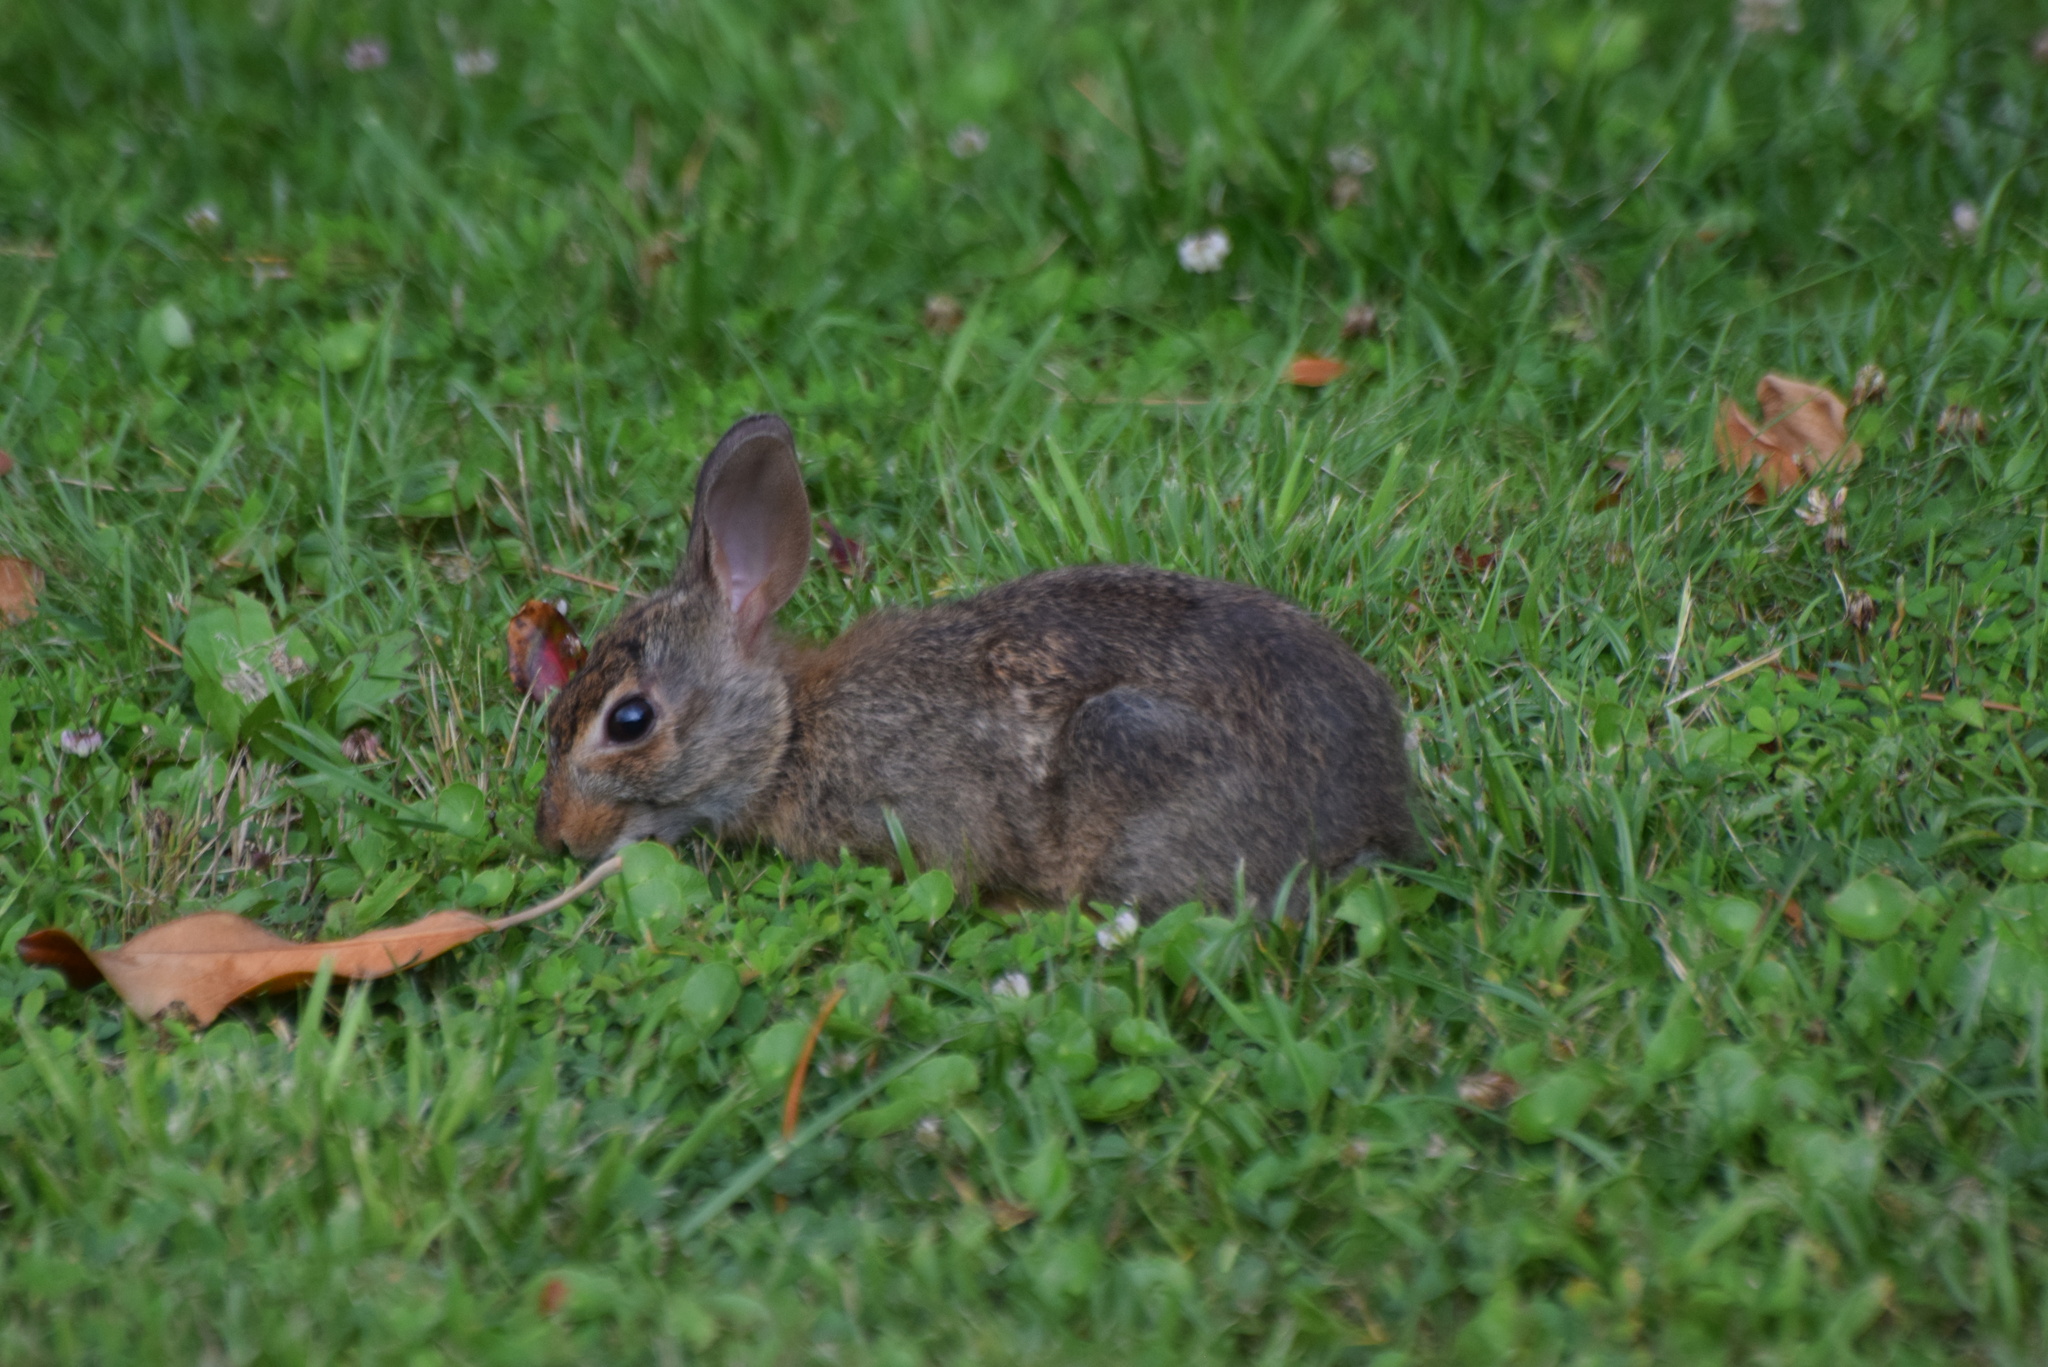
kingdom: Animalia
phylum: Chordata
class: Mammalia
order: Lagomorpha
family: Leporidae
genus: Sylvilagus
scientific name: Sylvilagus floridanus
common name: Eastern cottontail
